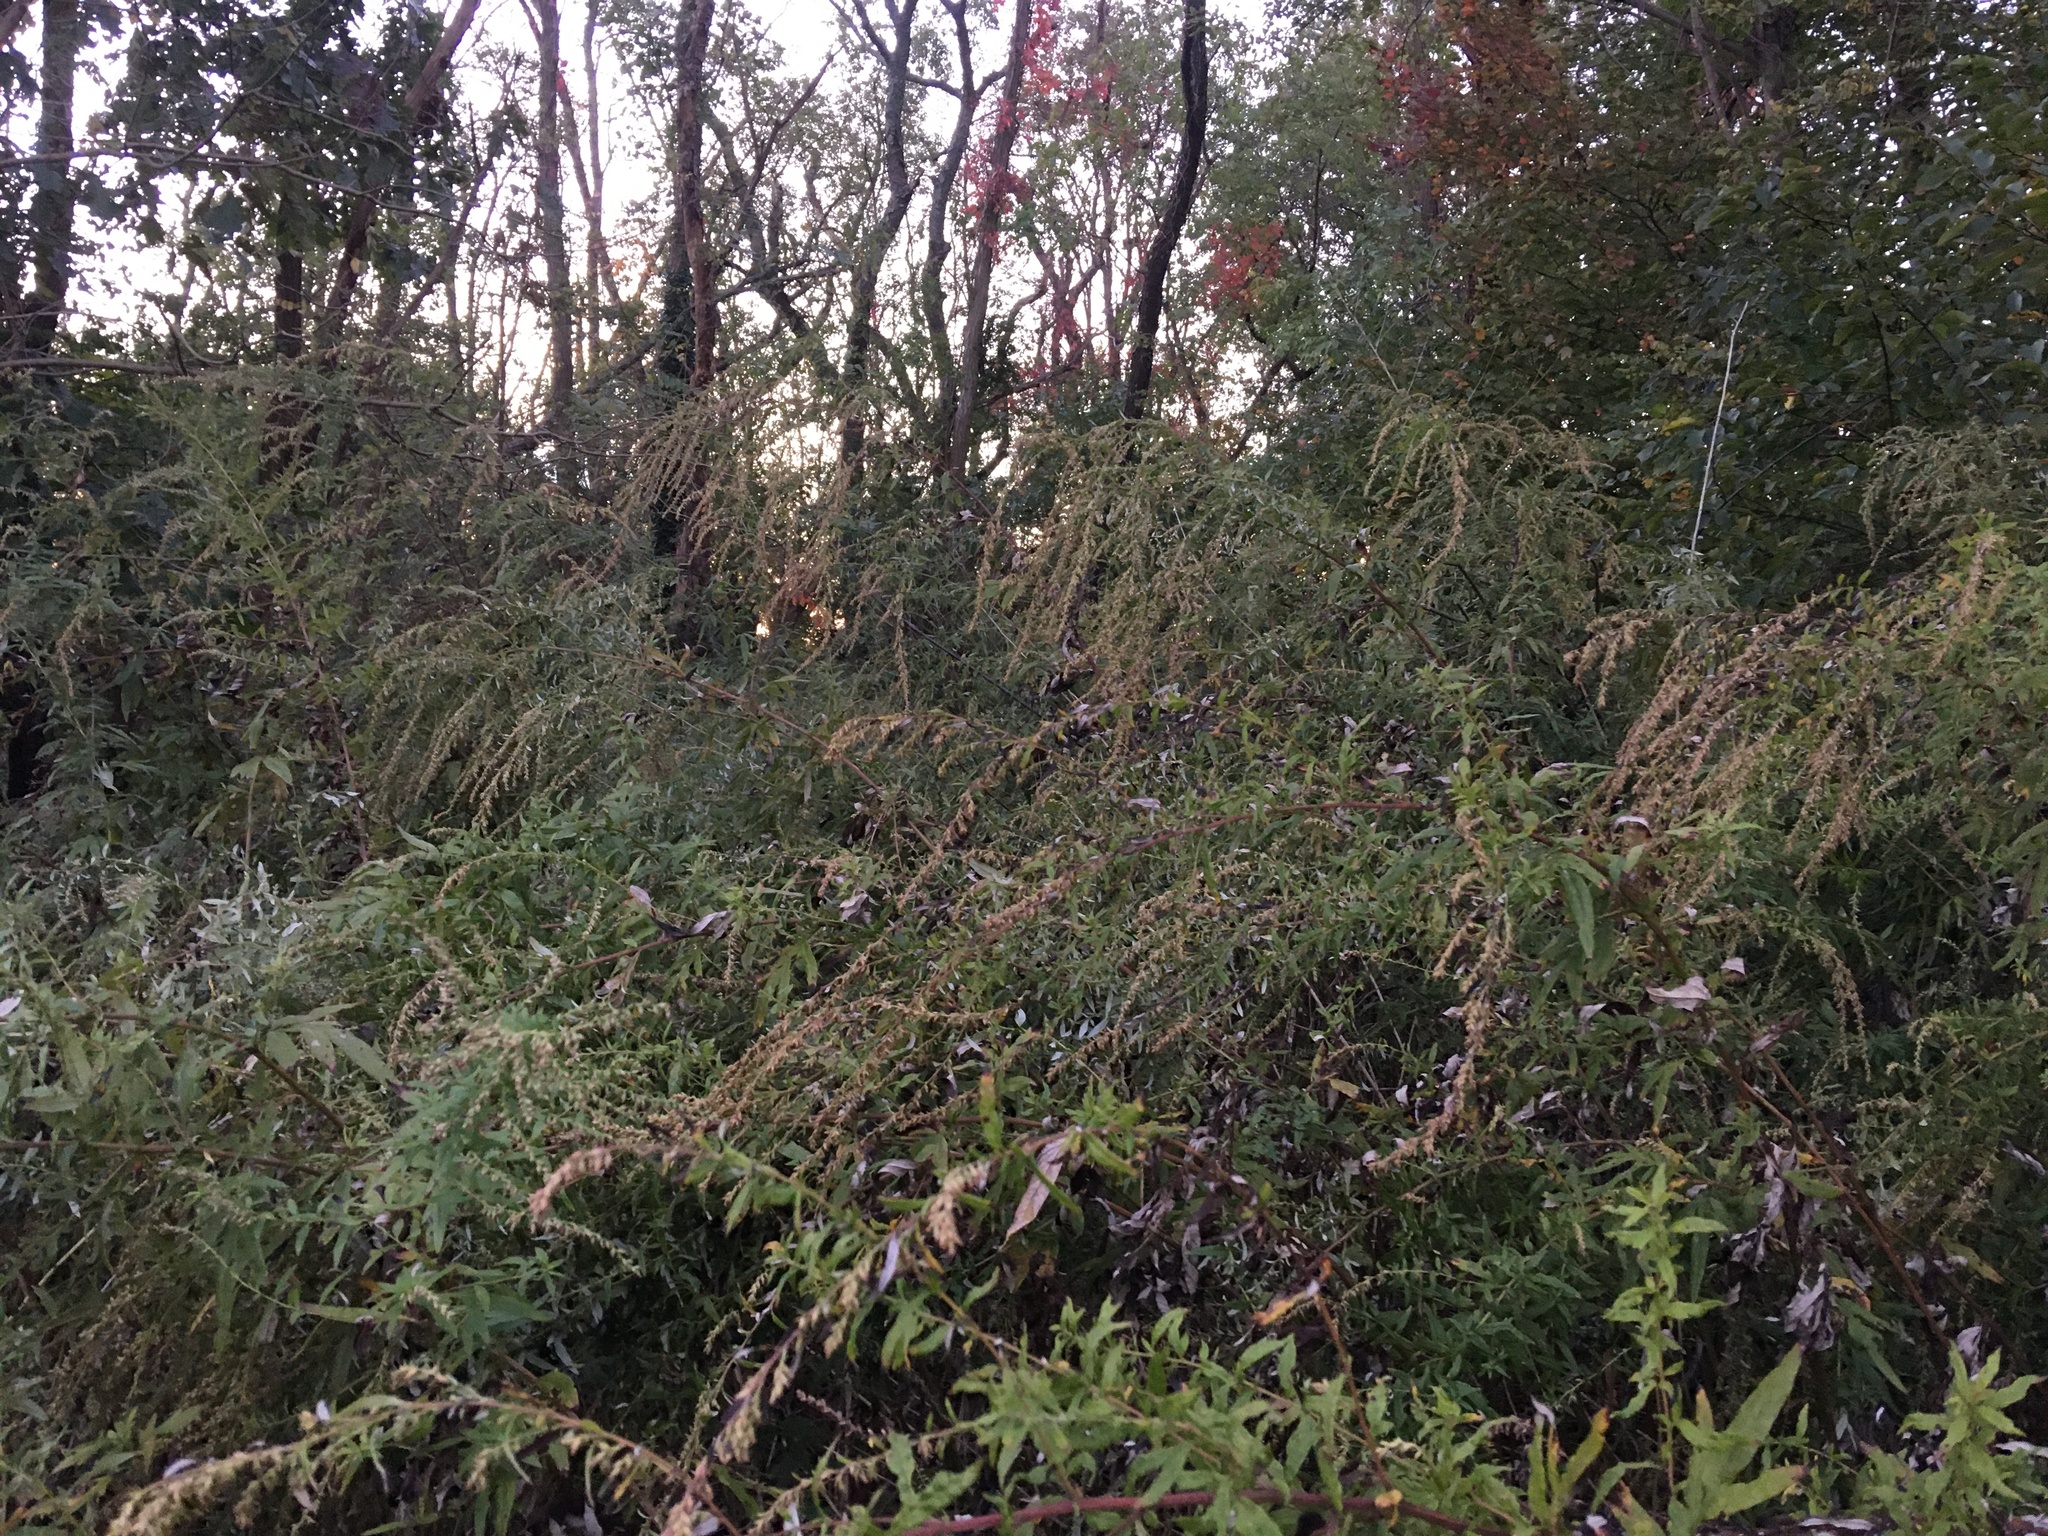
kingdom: Plantae
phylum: Tracheophyta
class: Magnoliopsida
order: Asterales
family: Asteraceae
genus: Artemisia
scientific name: Artemisia vulgaris
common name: Mugwort
